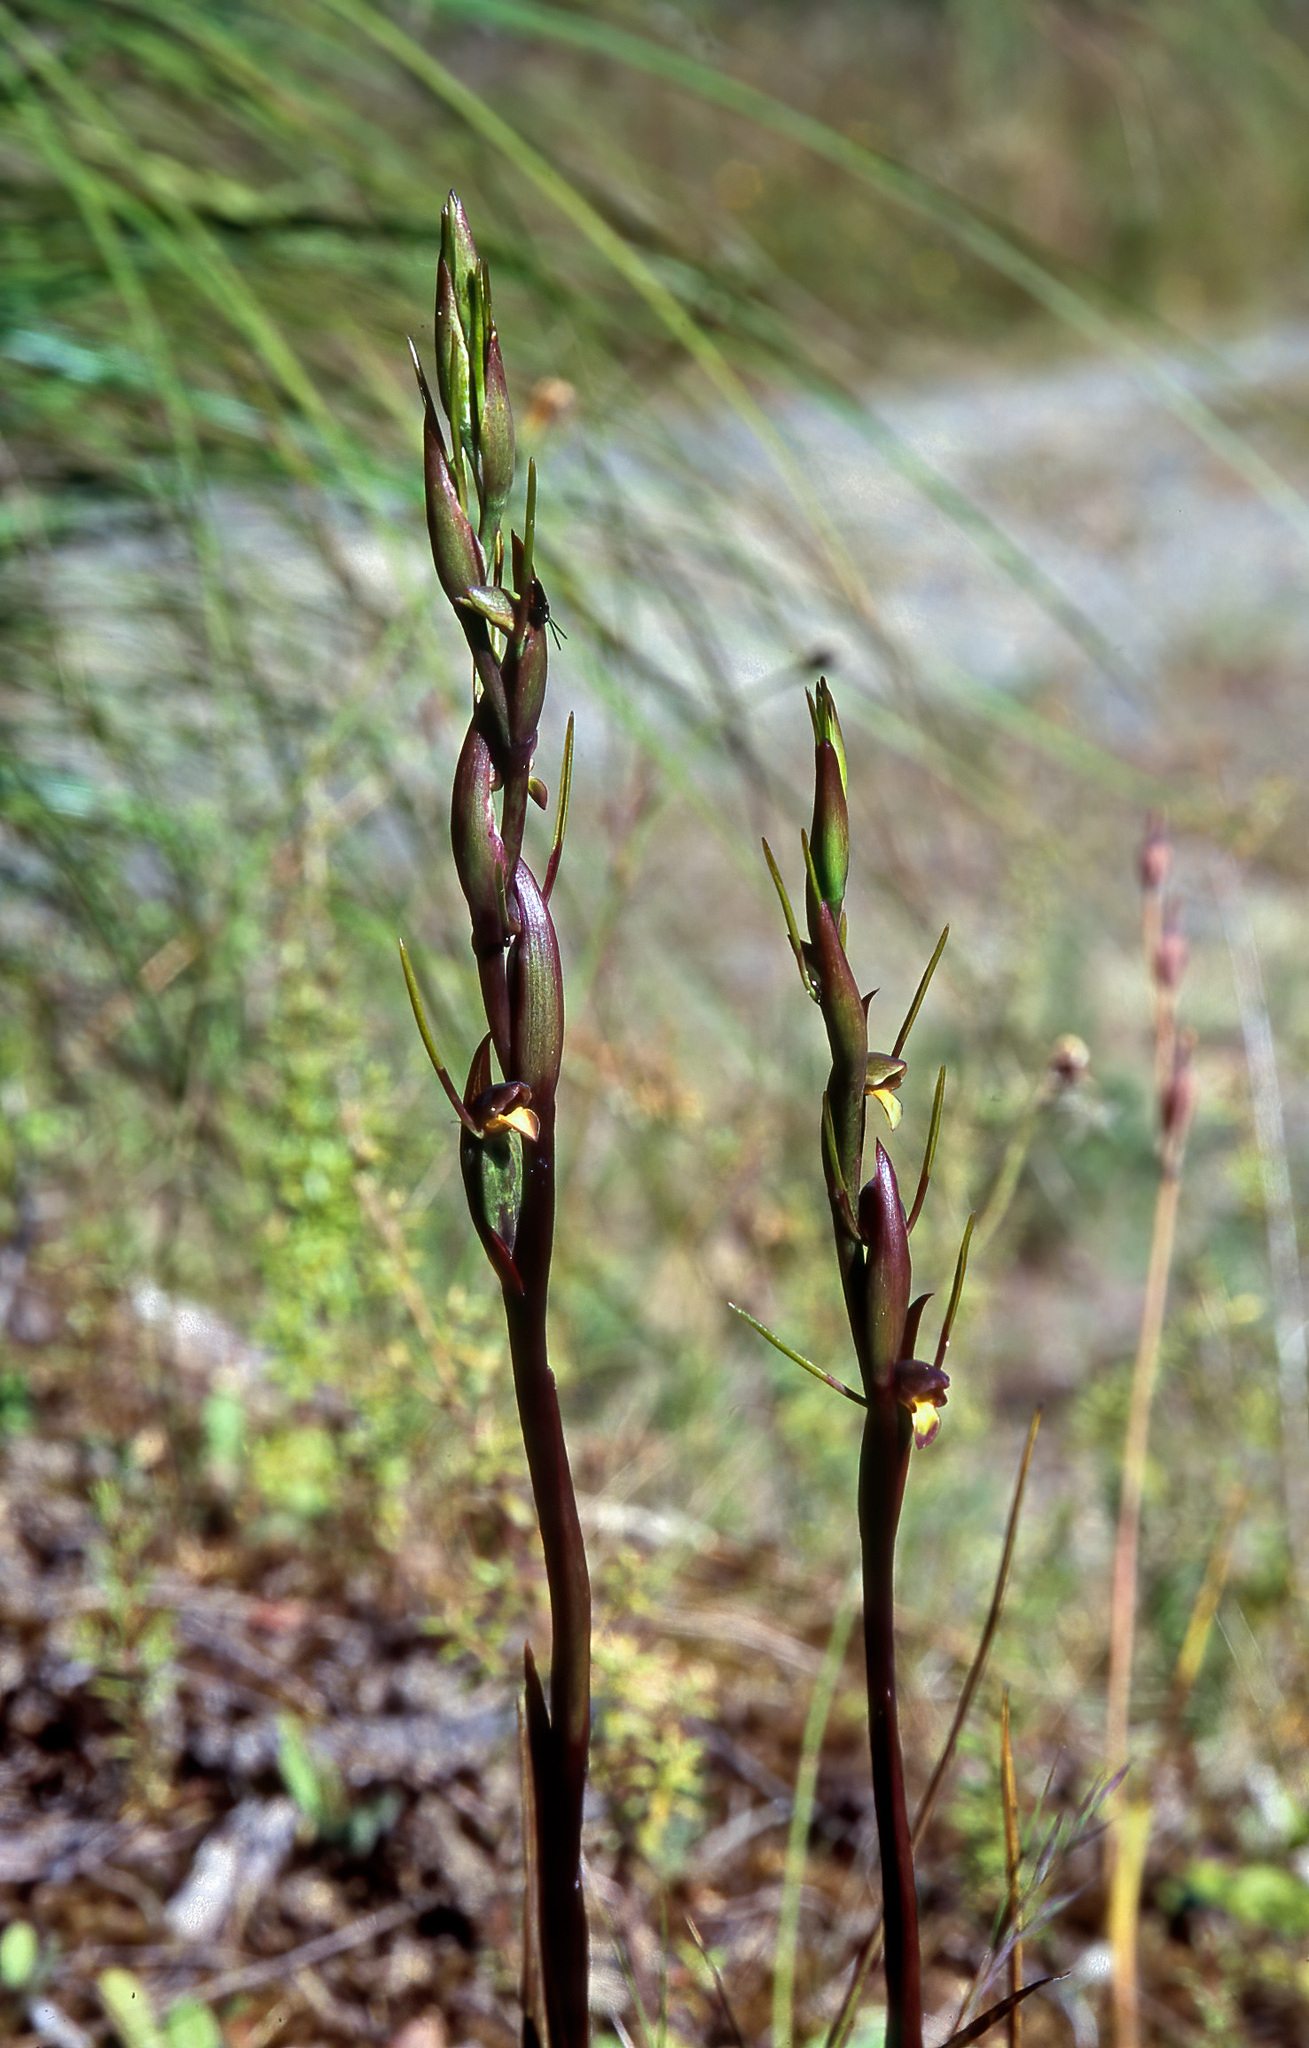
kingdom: Plantae
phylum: Tracheophyta
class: Liliopsida
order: Asparagales
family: Orchidaceae
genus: Orthoceras
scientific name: Orthoceras novae-zeelandiae
